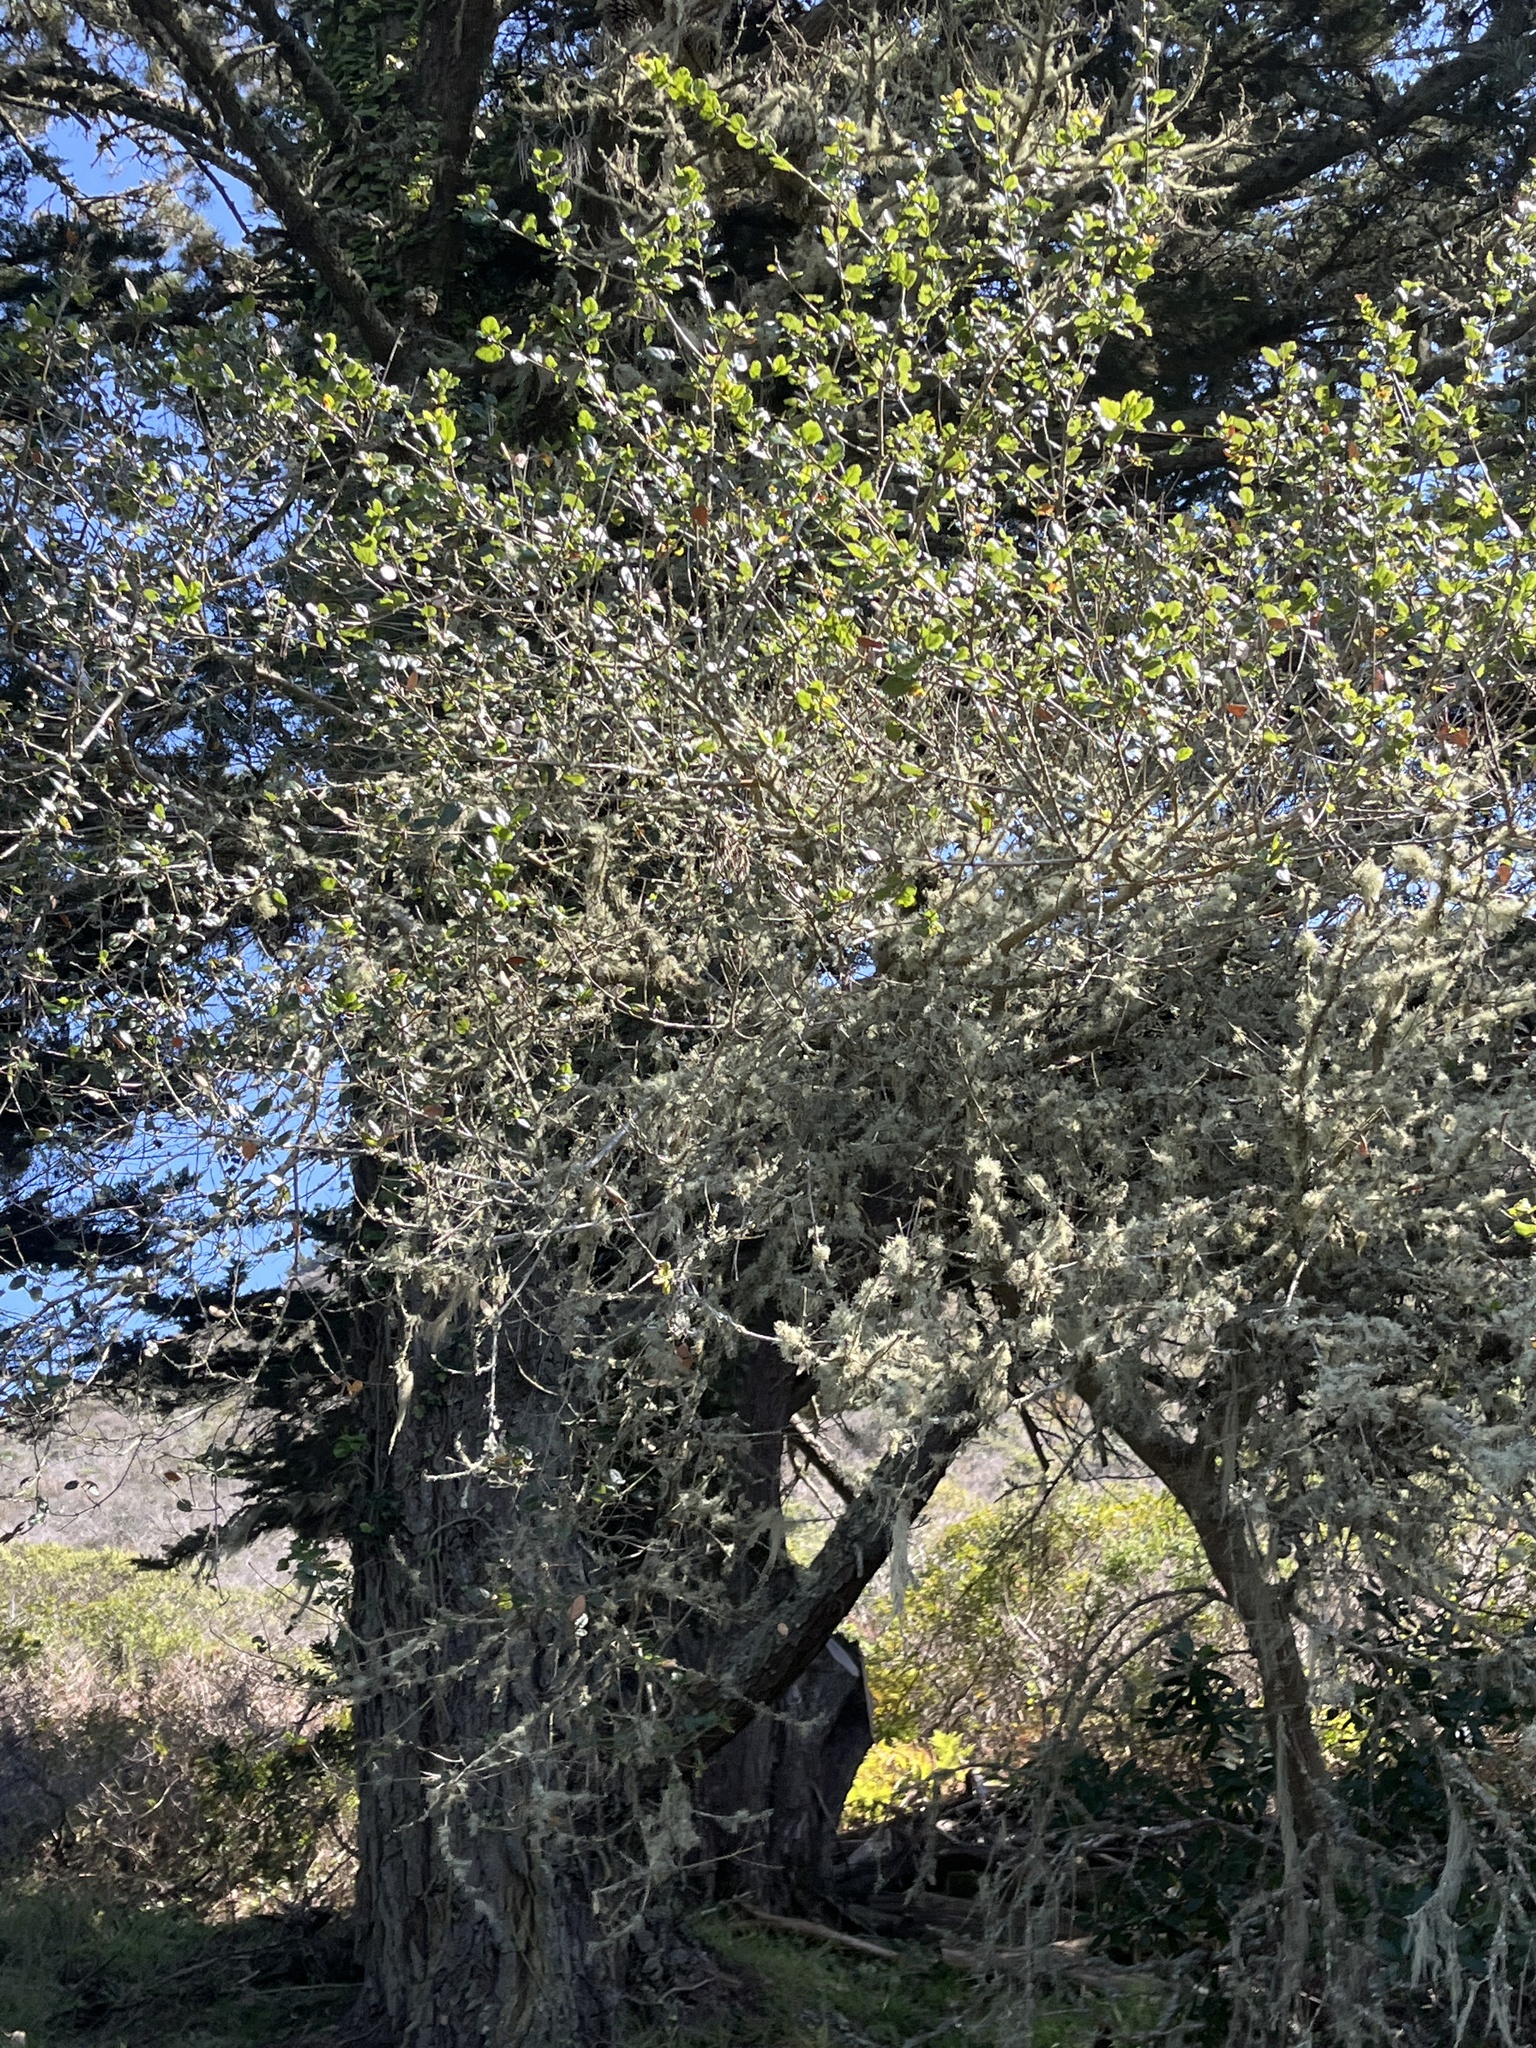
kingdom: Plantae
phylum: Tracheophyta
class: Magnoliopsida
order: Fagales
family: Fagaceae
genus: Quercus
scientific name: Quercus agrifolia
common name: California live oak
